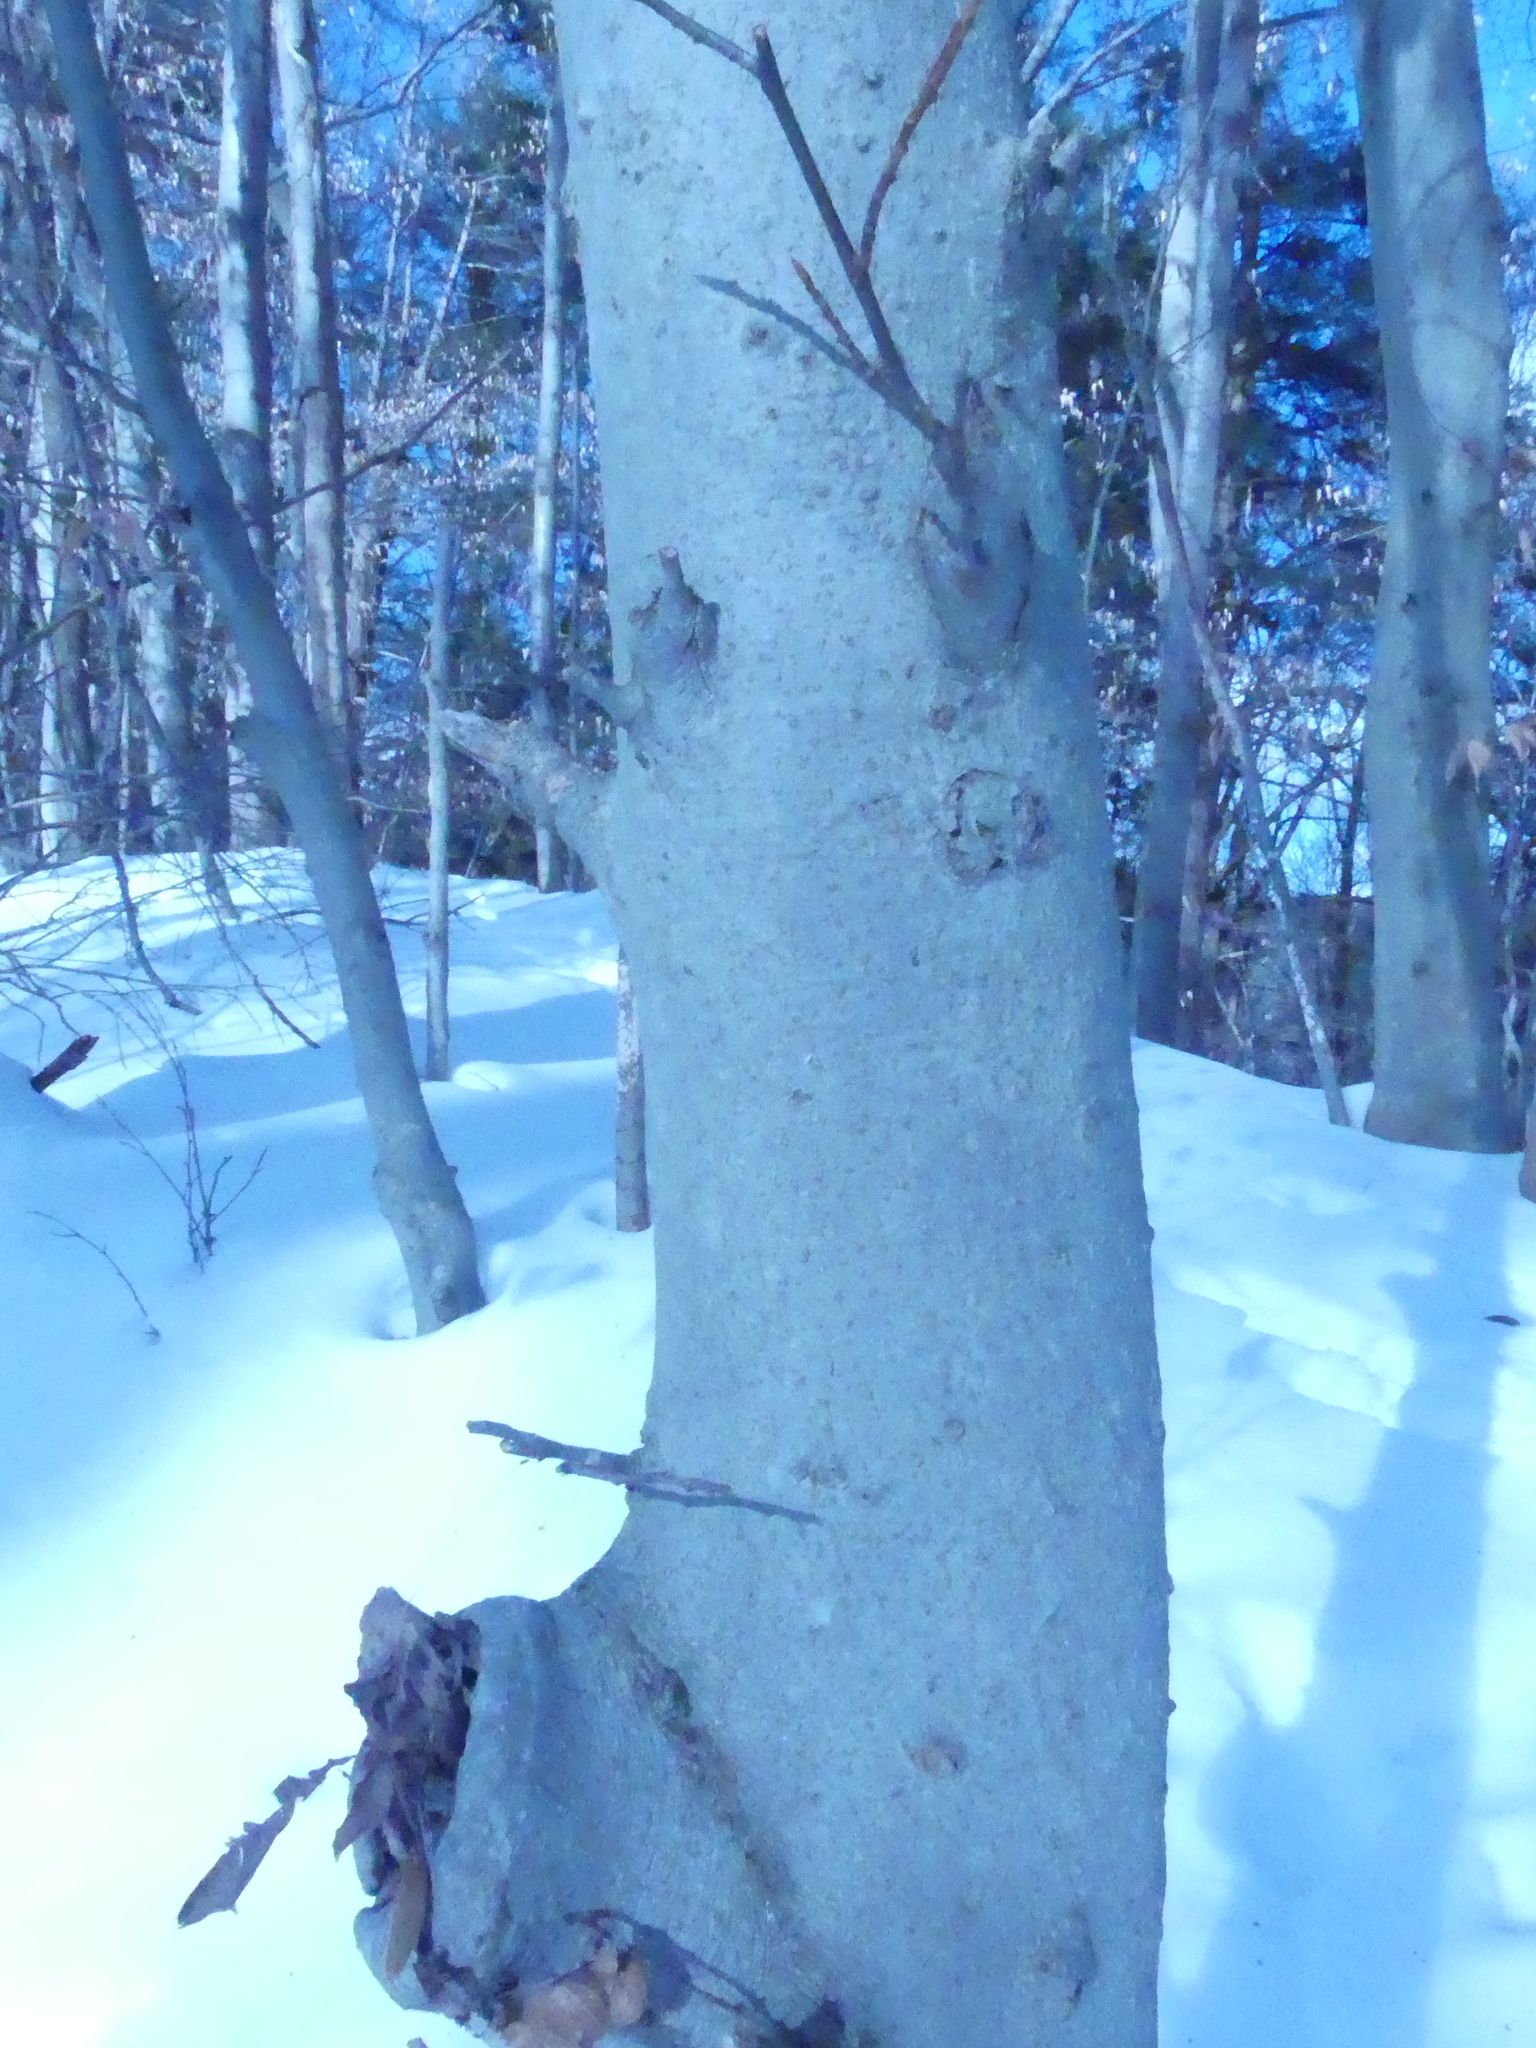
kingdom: Plantae
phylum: Tracheophyta
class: Magnoliopsida
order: Fagales
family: Fagaceae
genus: Fagus
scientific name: Fagus grandifolia
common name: American beech
